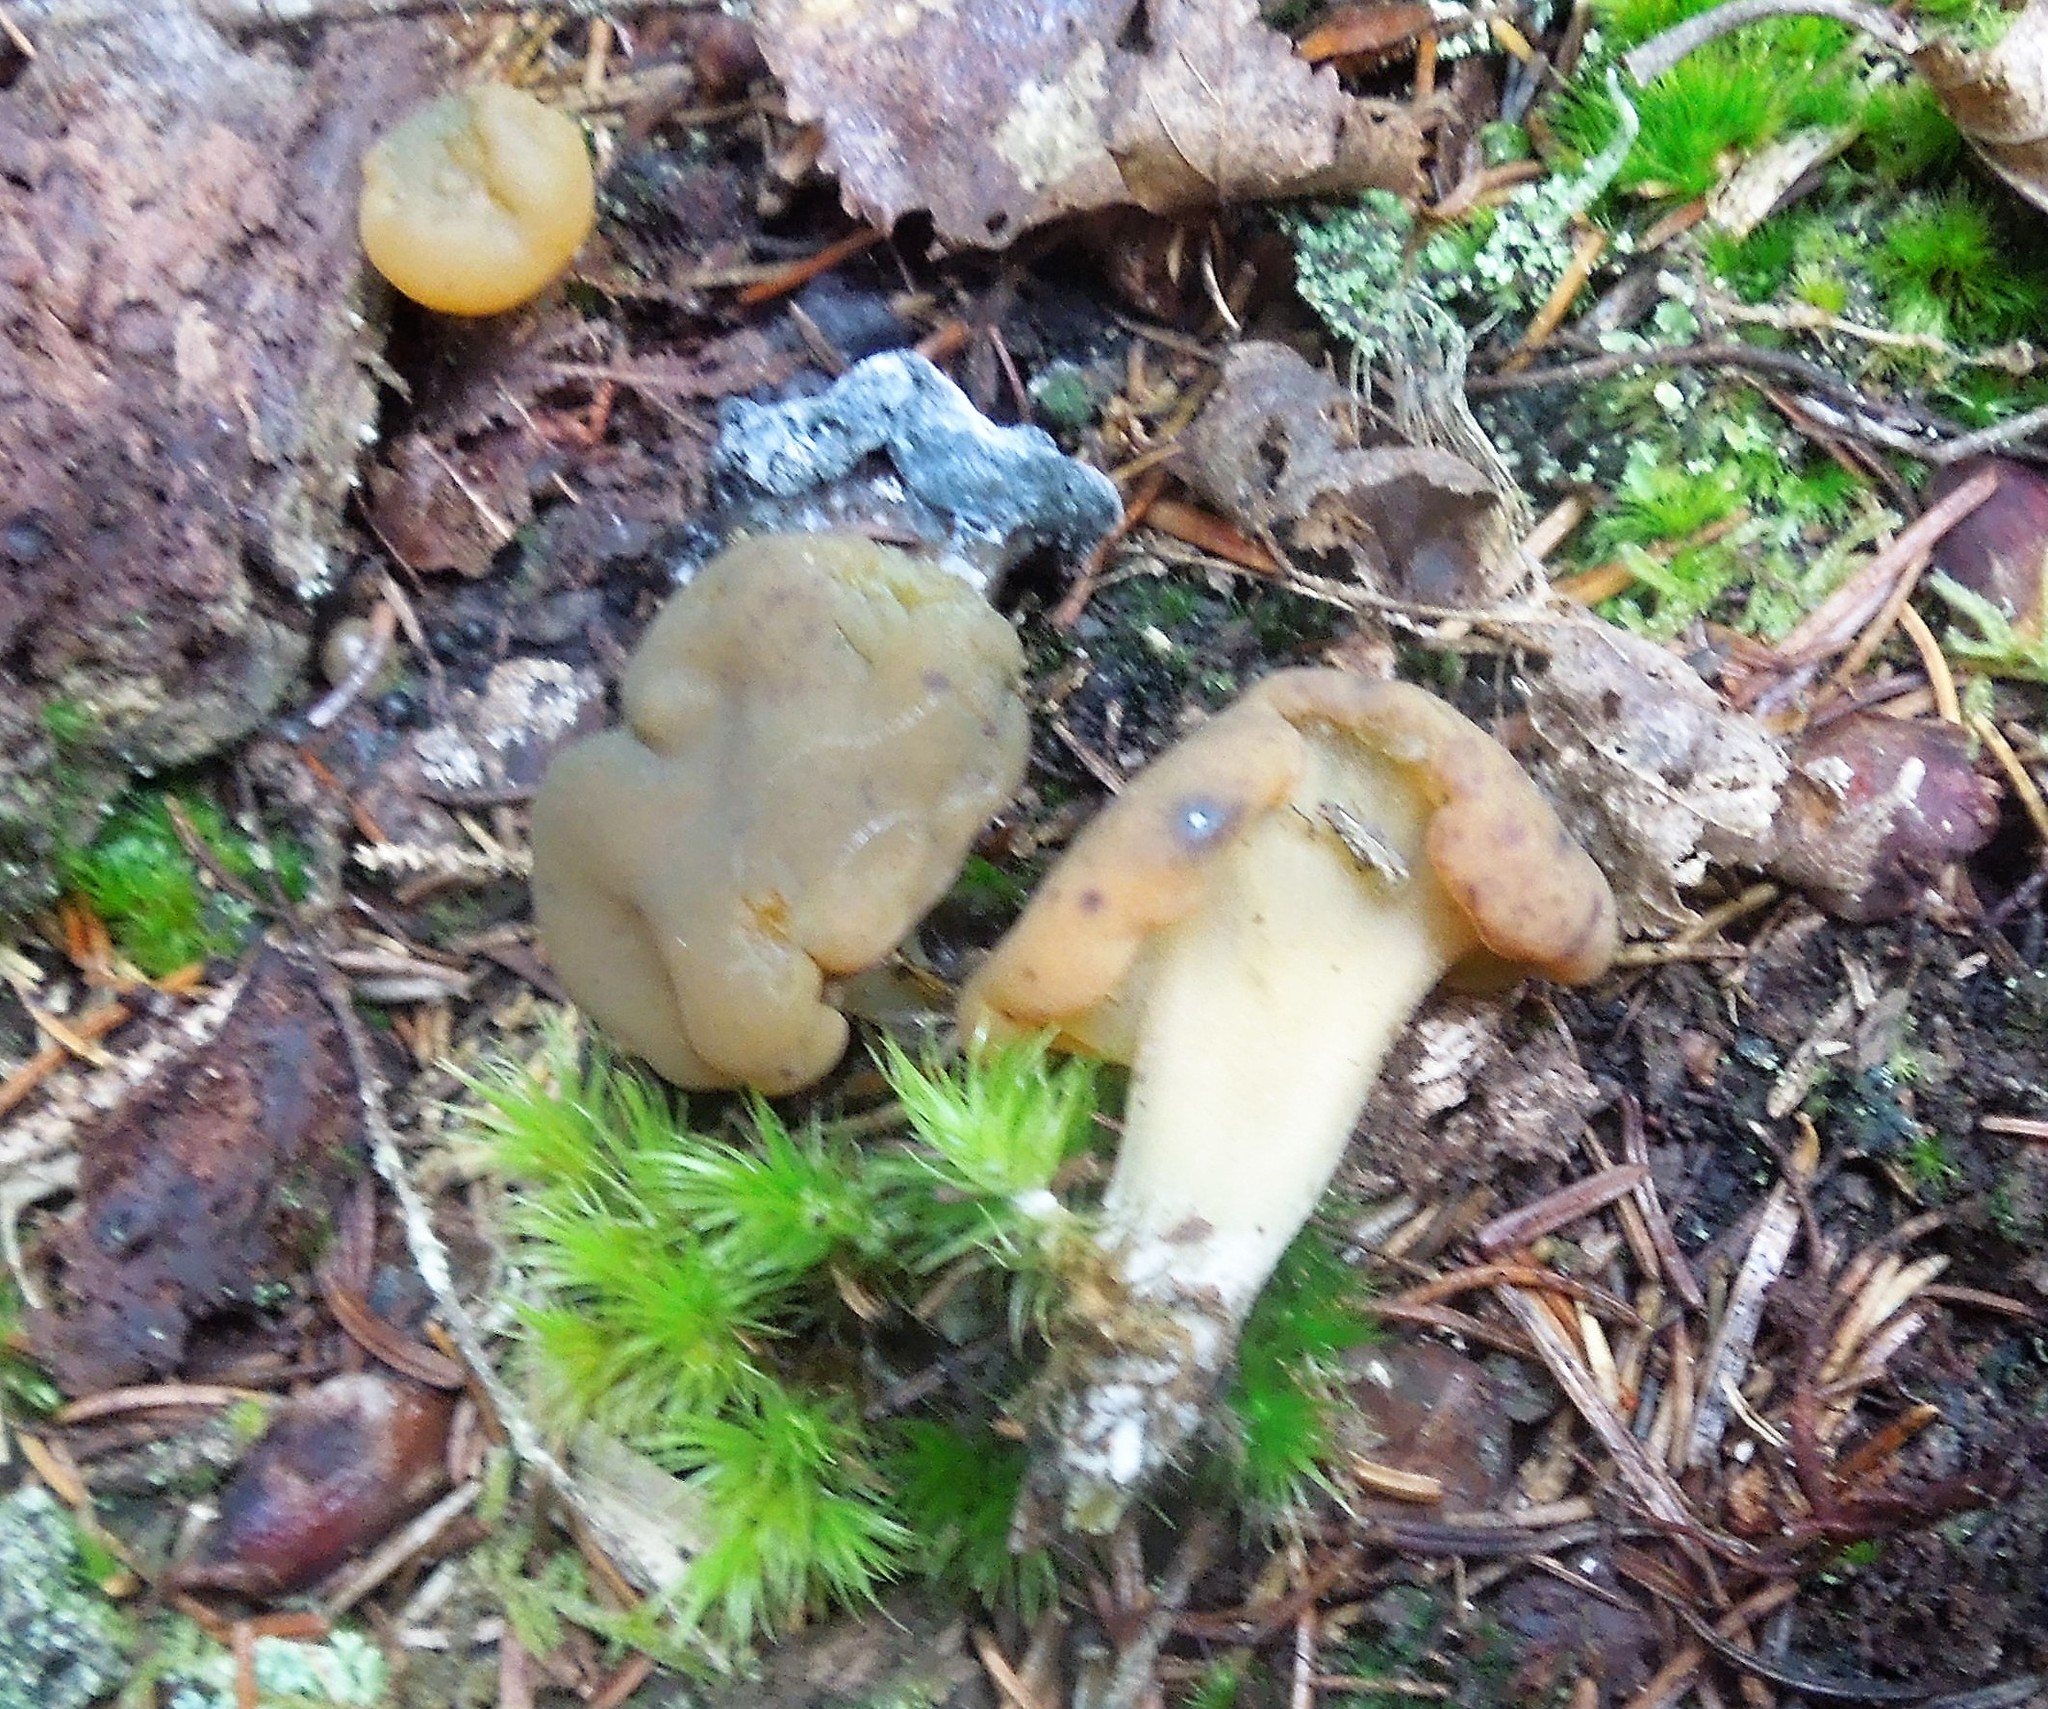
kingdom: Fungi
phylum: Ascomycota
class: Leotiomycetes
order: Leotiales
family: Leotiaceae
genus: Leotia
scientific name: Leotia lubrica
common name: Jellybaby
